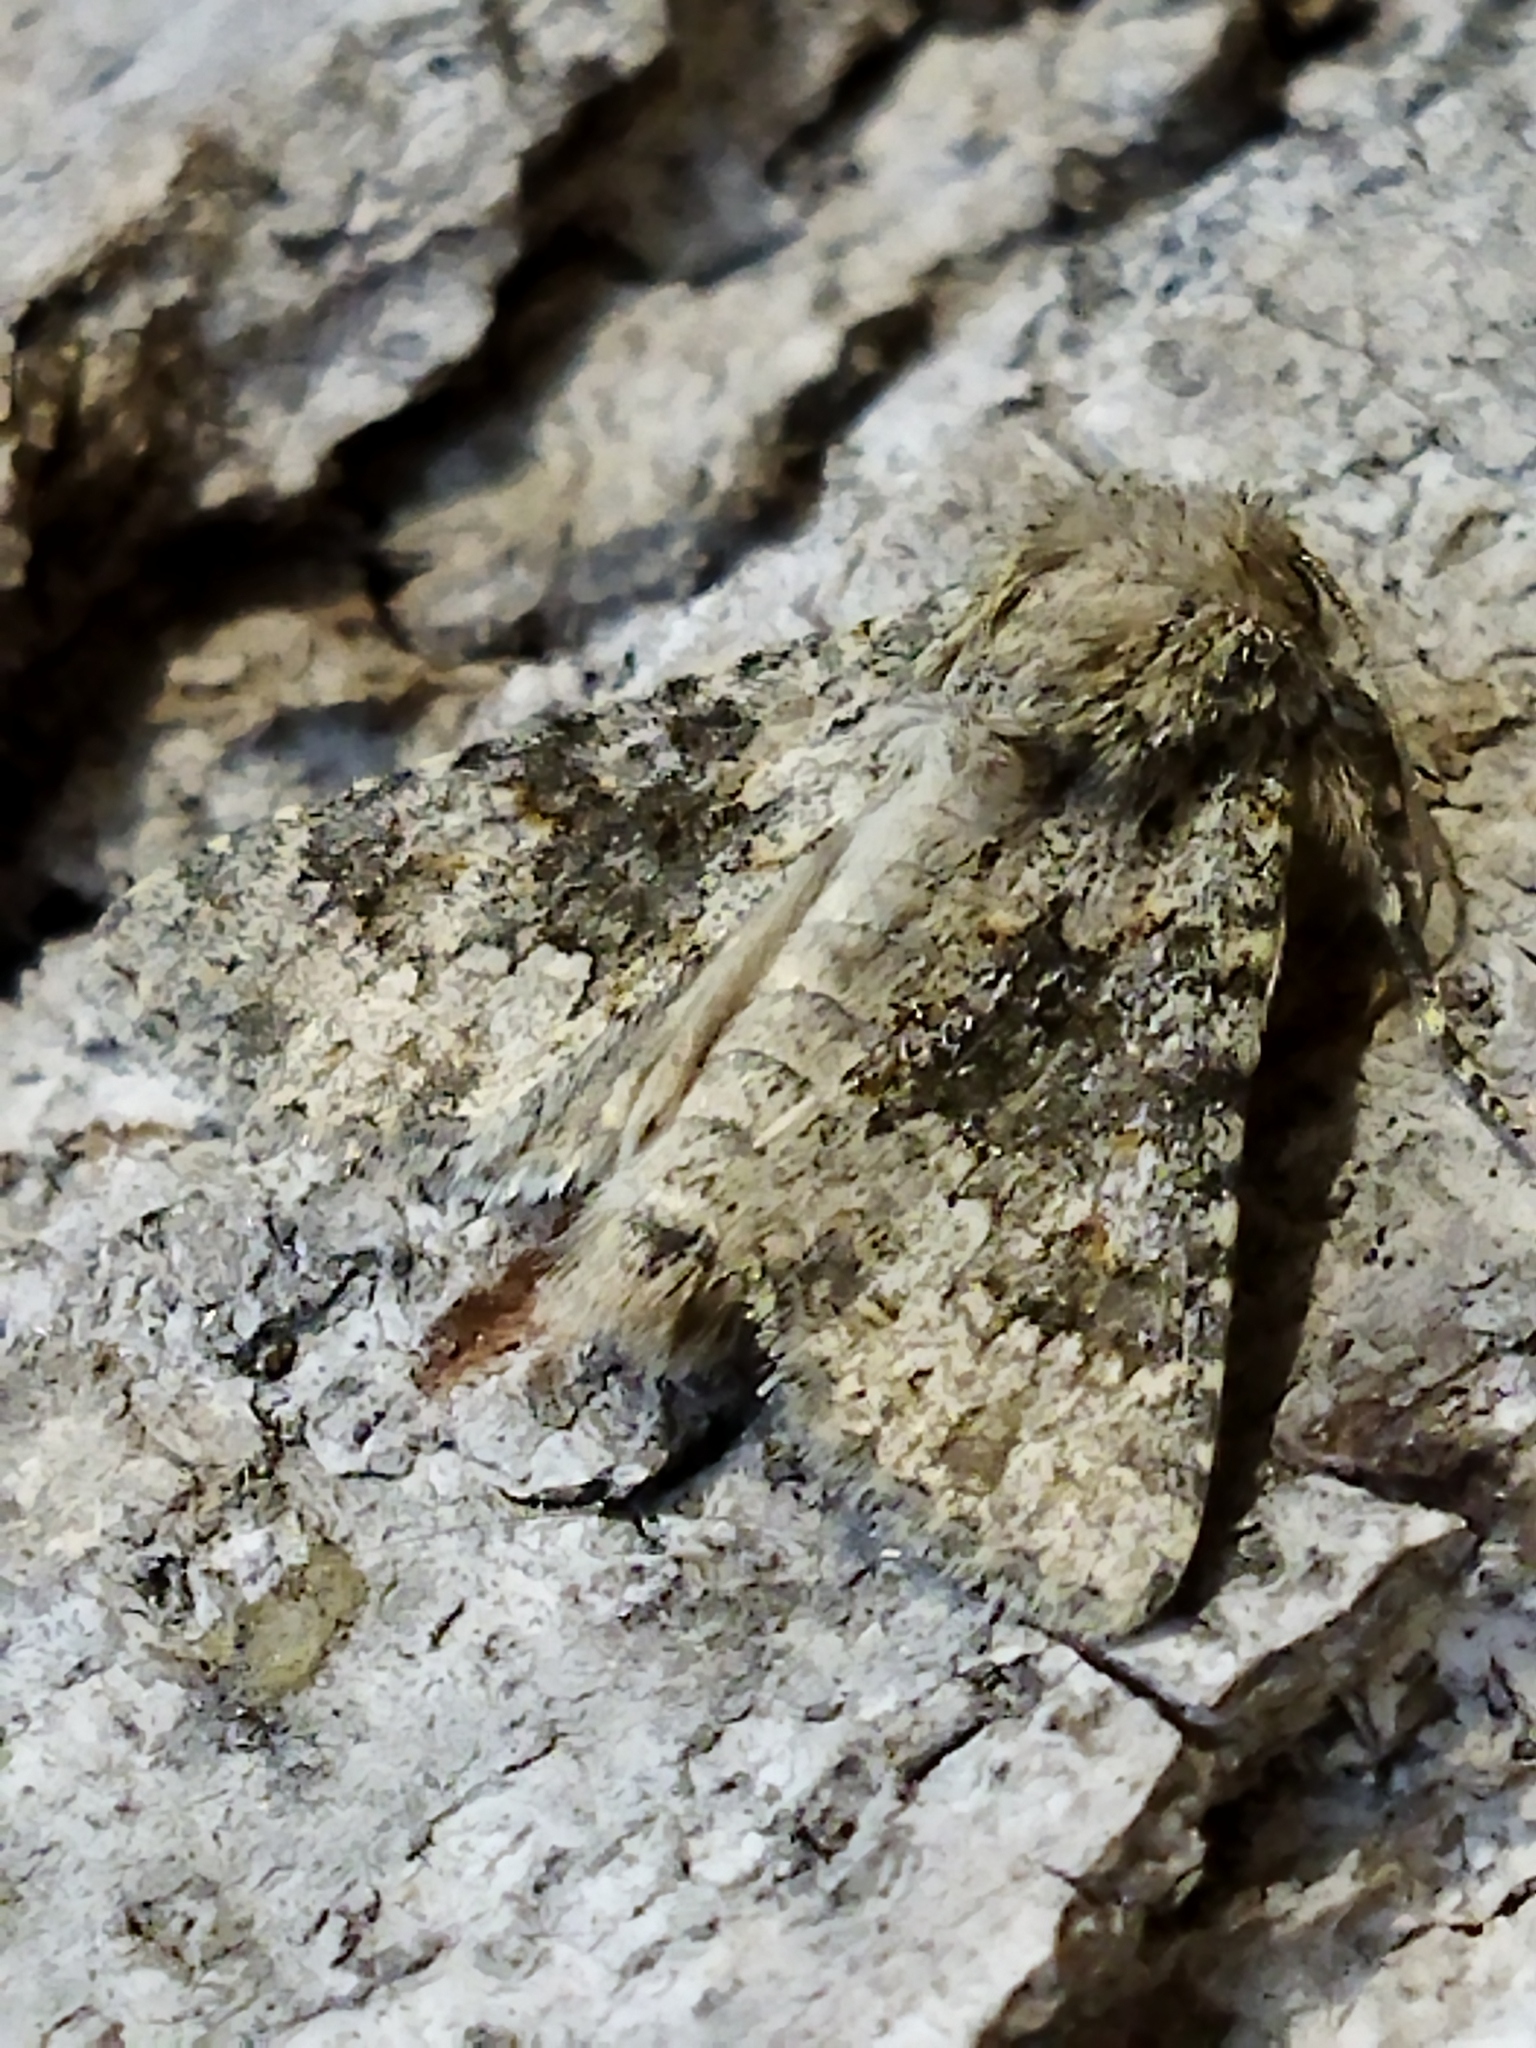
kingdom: Animalia
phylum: Arthropoda
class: Insecta
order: Lepidoptera
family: Noctuidae
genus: Hecatera
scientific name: Hecatera dysodea
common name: Small ranunculus
